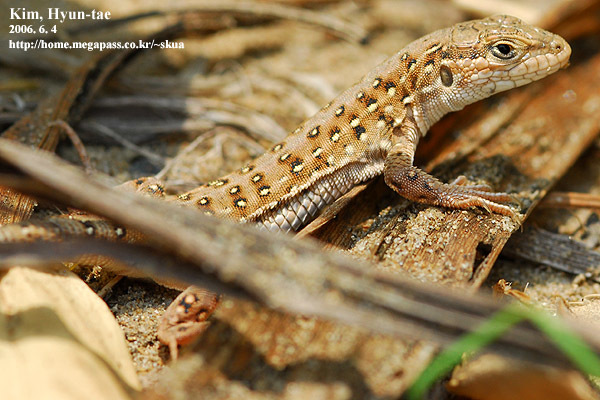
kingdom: Animalia
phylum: Chordata
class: Squamata
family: Lacertidae
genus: Eremias
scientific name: Eremias argus
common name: Mongolia racerunner
